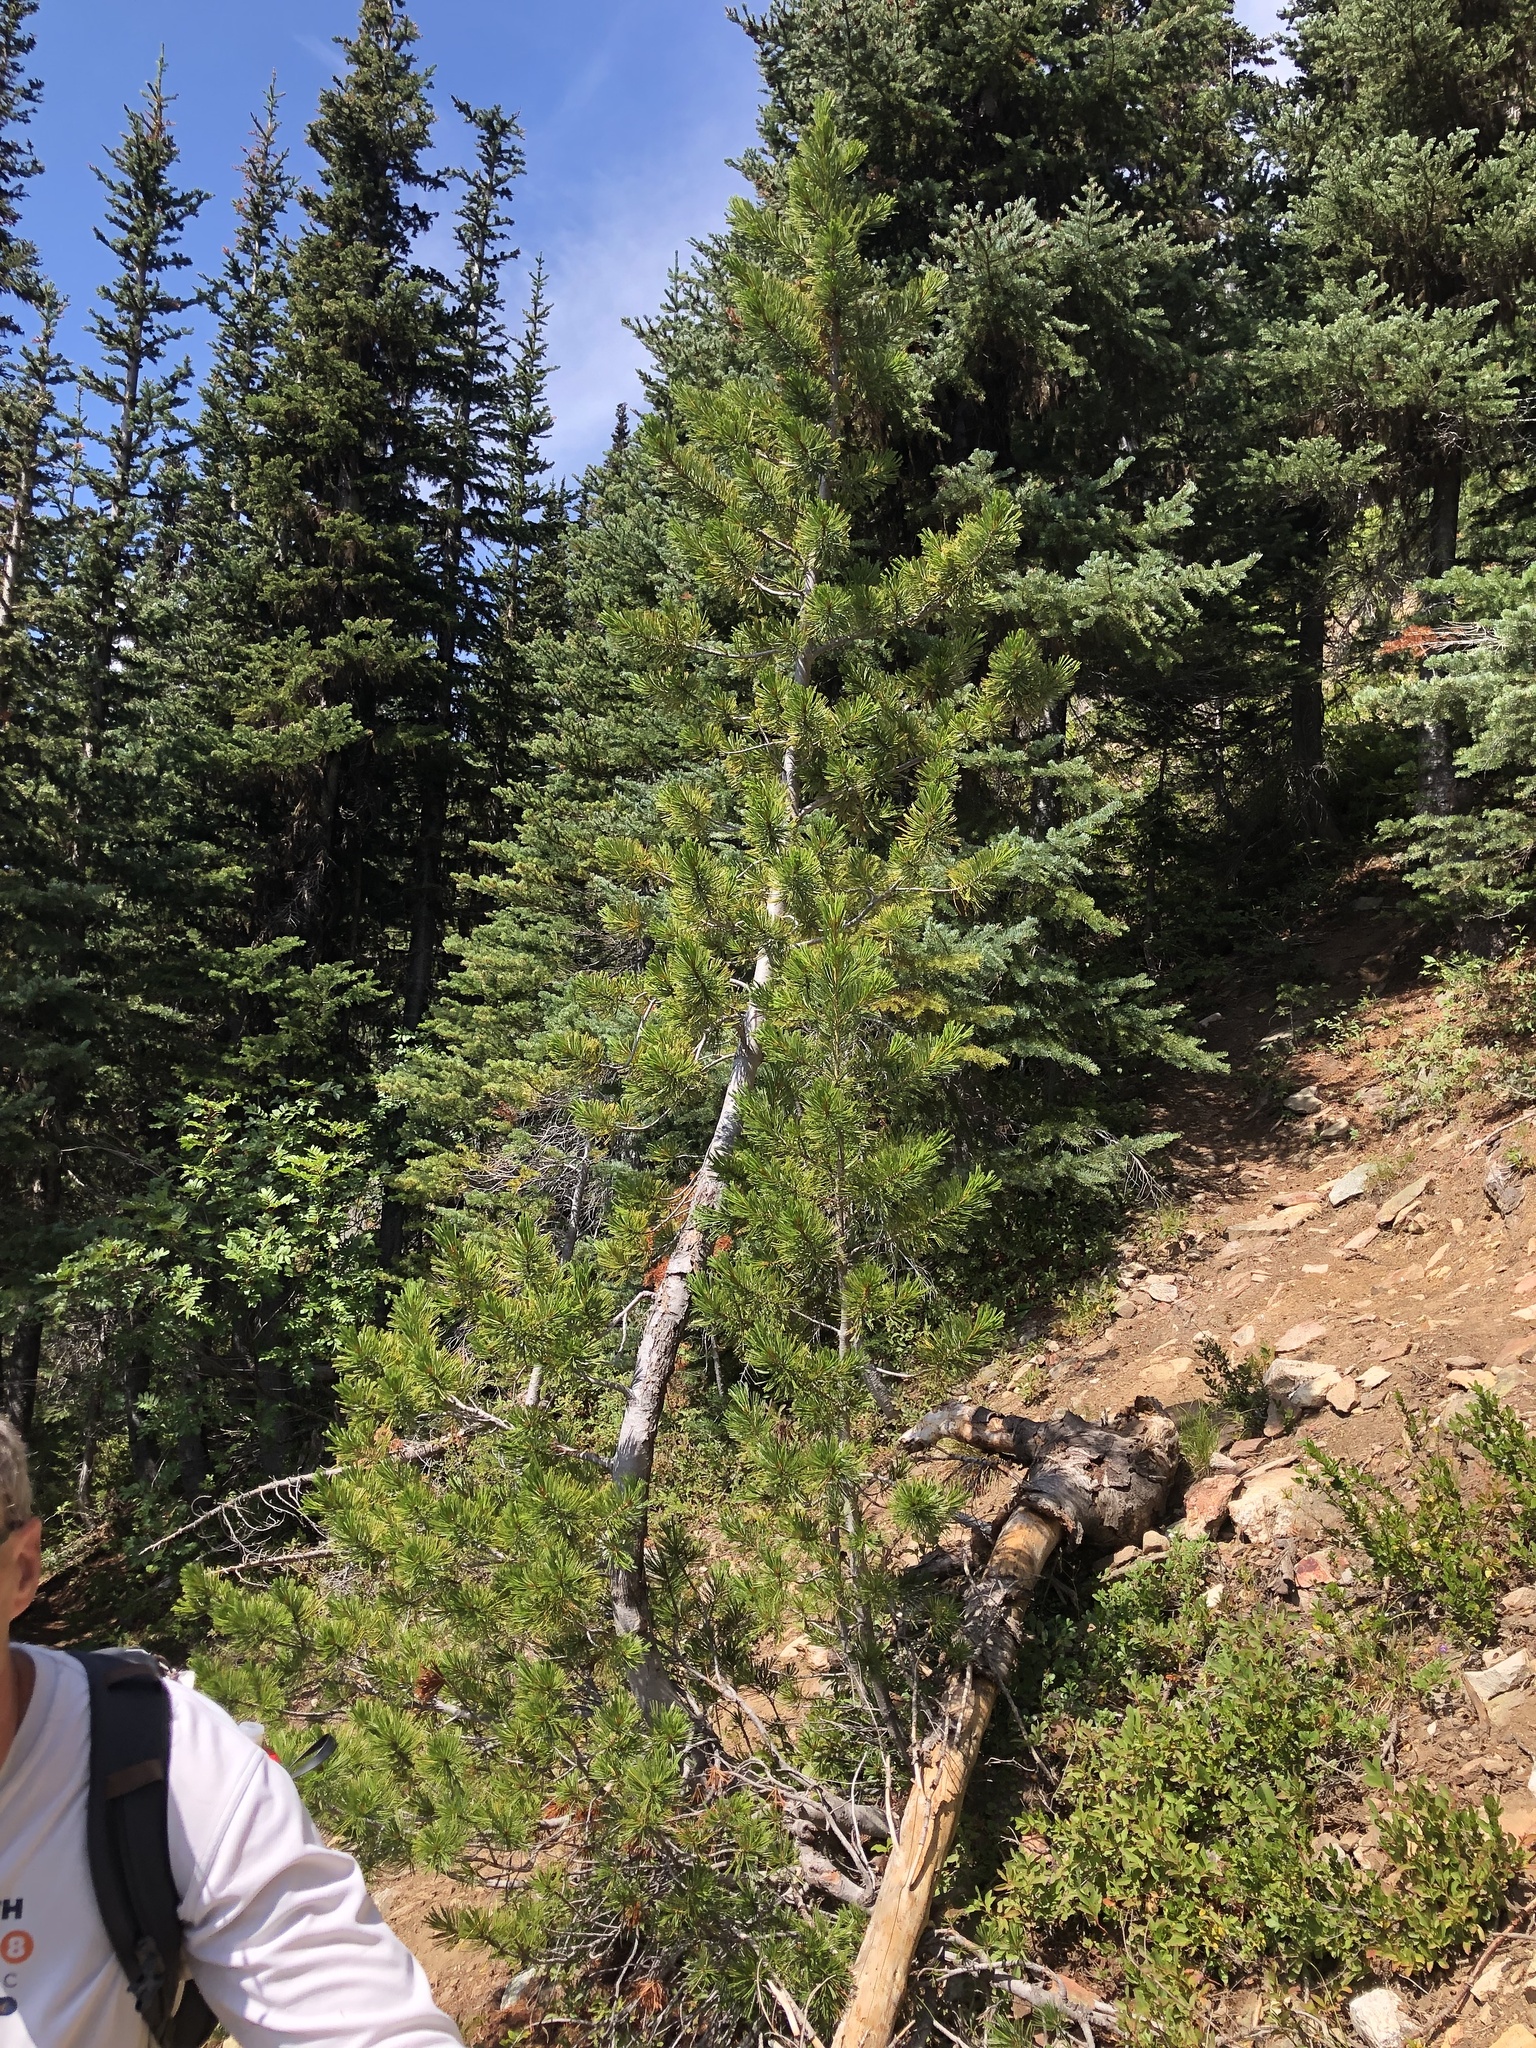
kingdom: Plantae
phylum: Tracheophyta
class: Pinopsida
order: Pinales
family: Pinaceae
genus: Pinus
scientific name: Pinus albicaulis
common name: Whitebark pine
